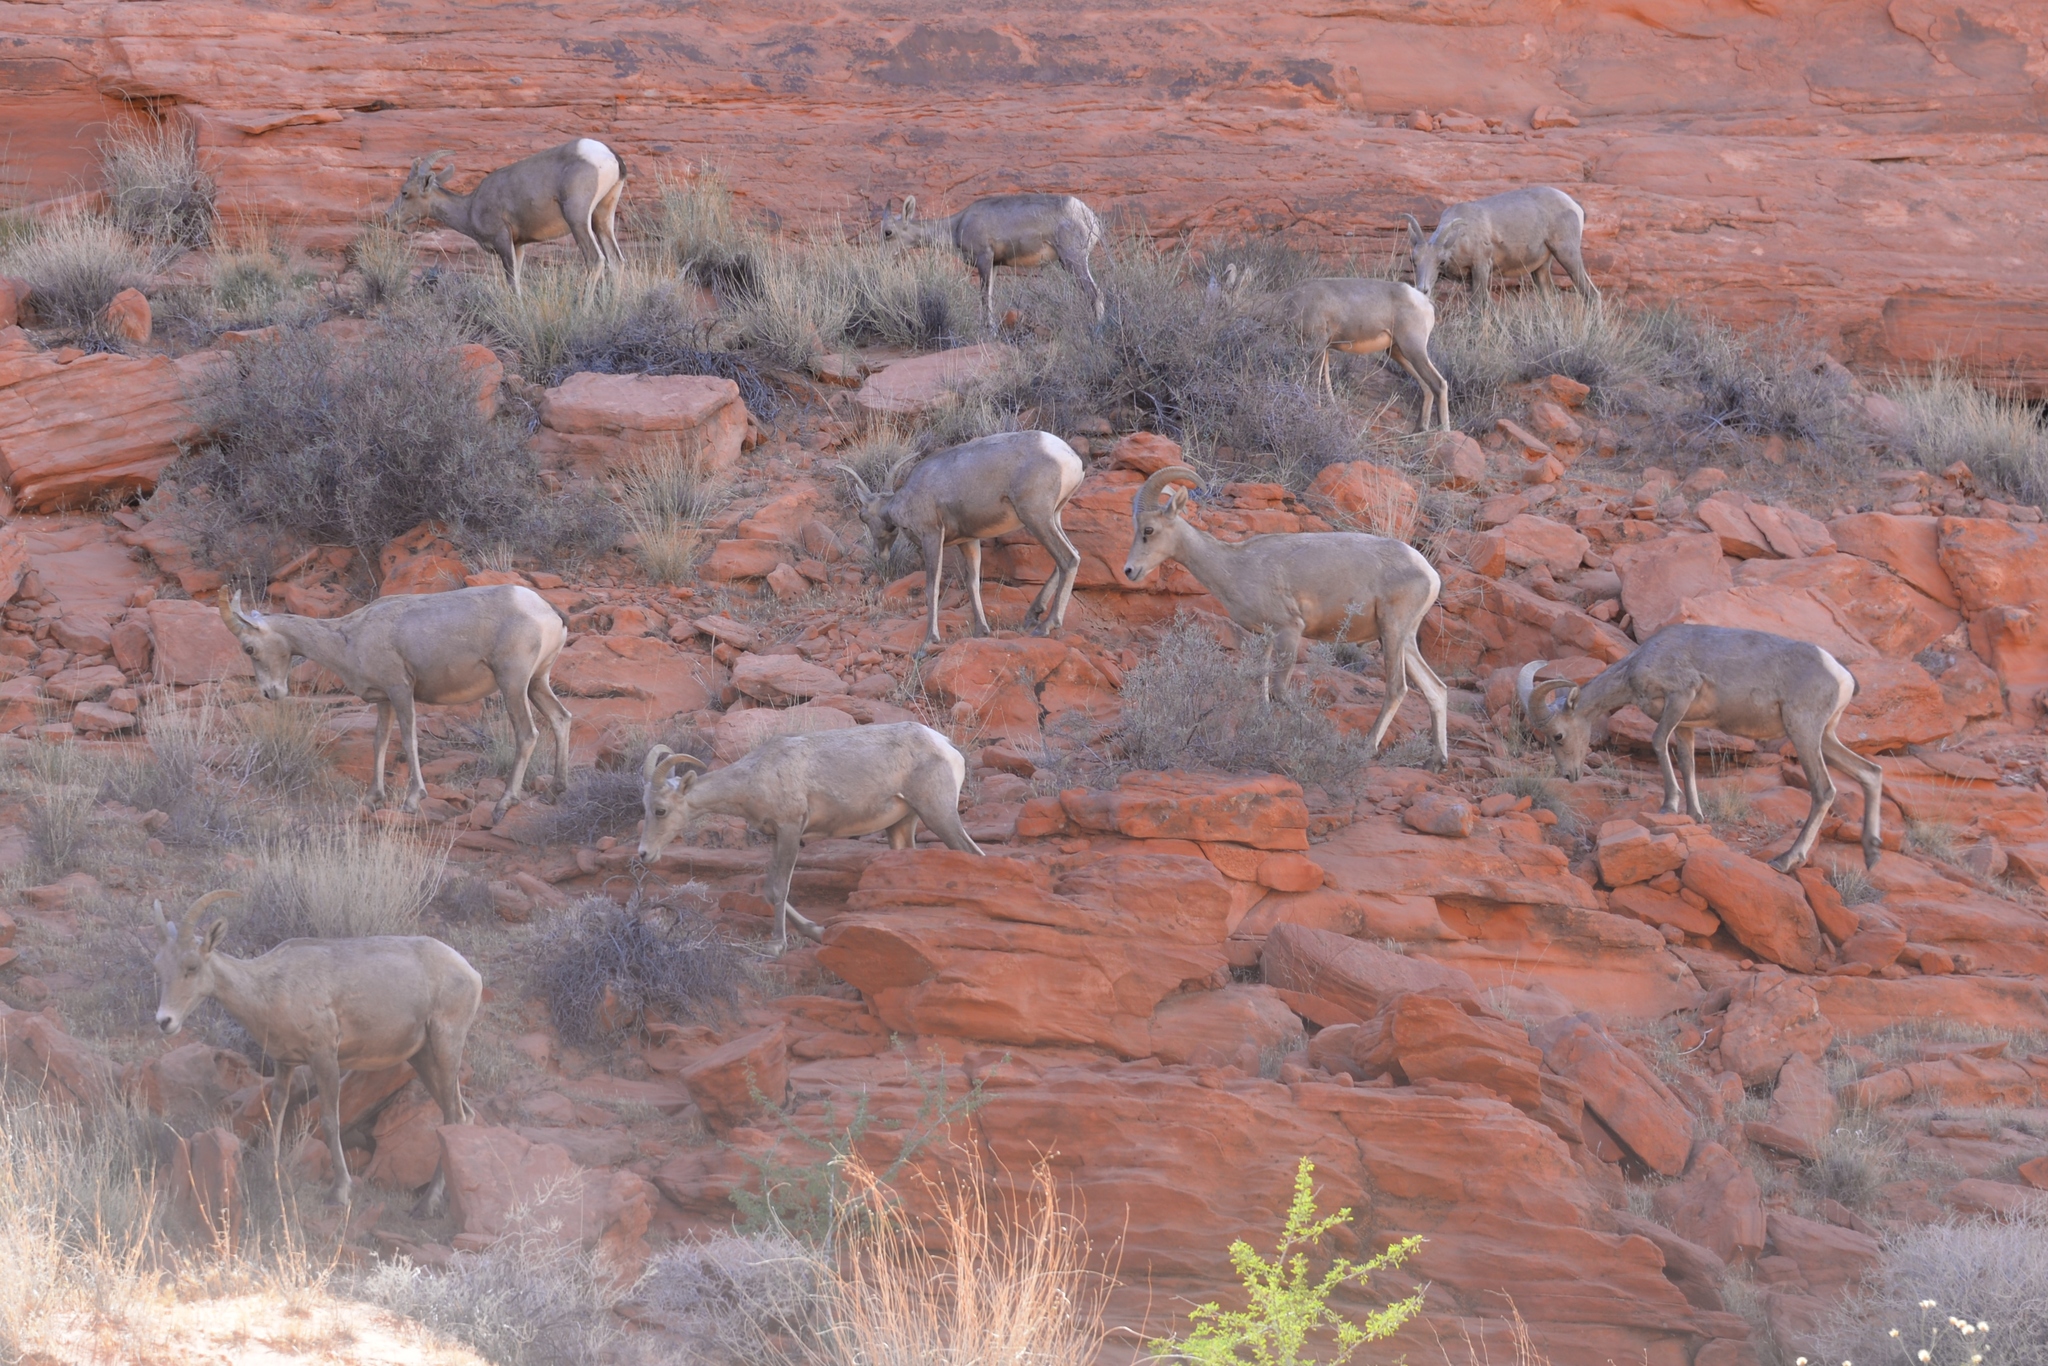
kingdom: Animalia
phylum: Chordata
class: Mammalia
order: Artiodactyla
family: Bovidae
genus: Ovis
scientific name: Ovis canadensis
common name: Bighorn sheep
